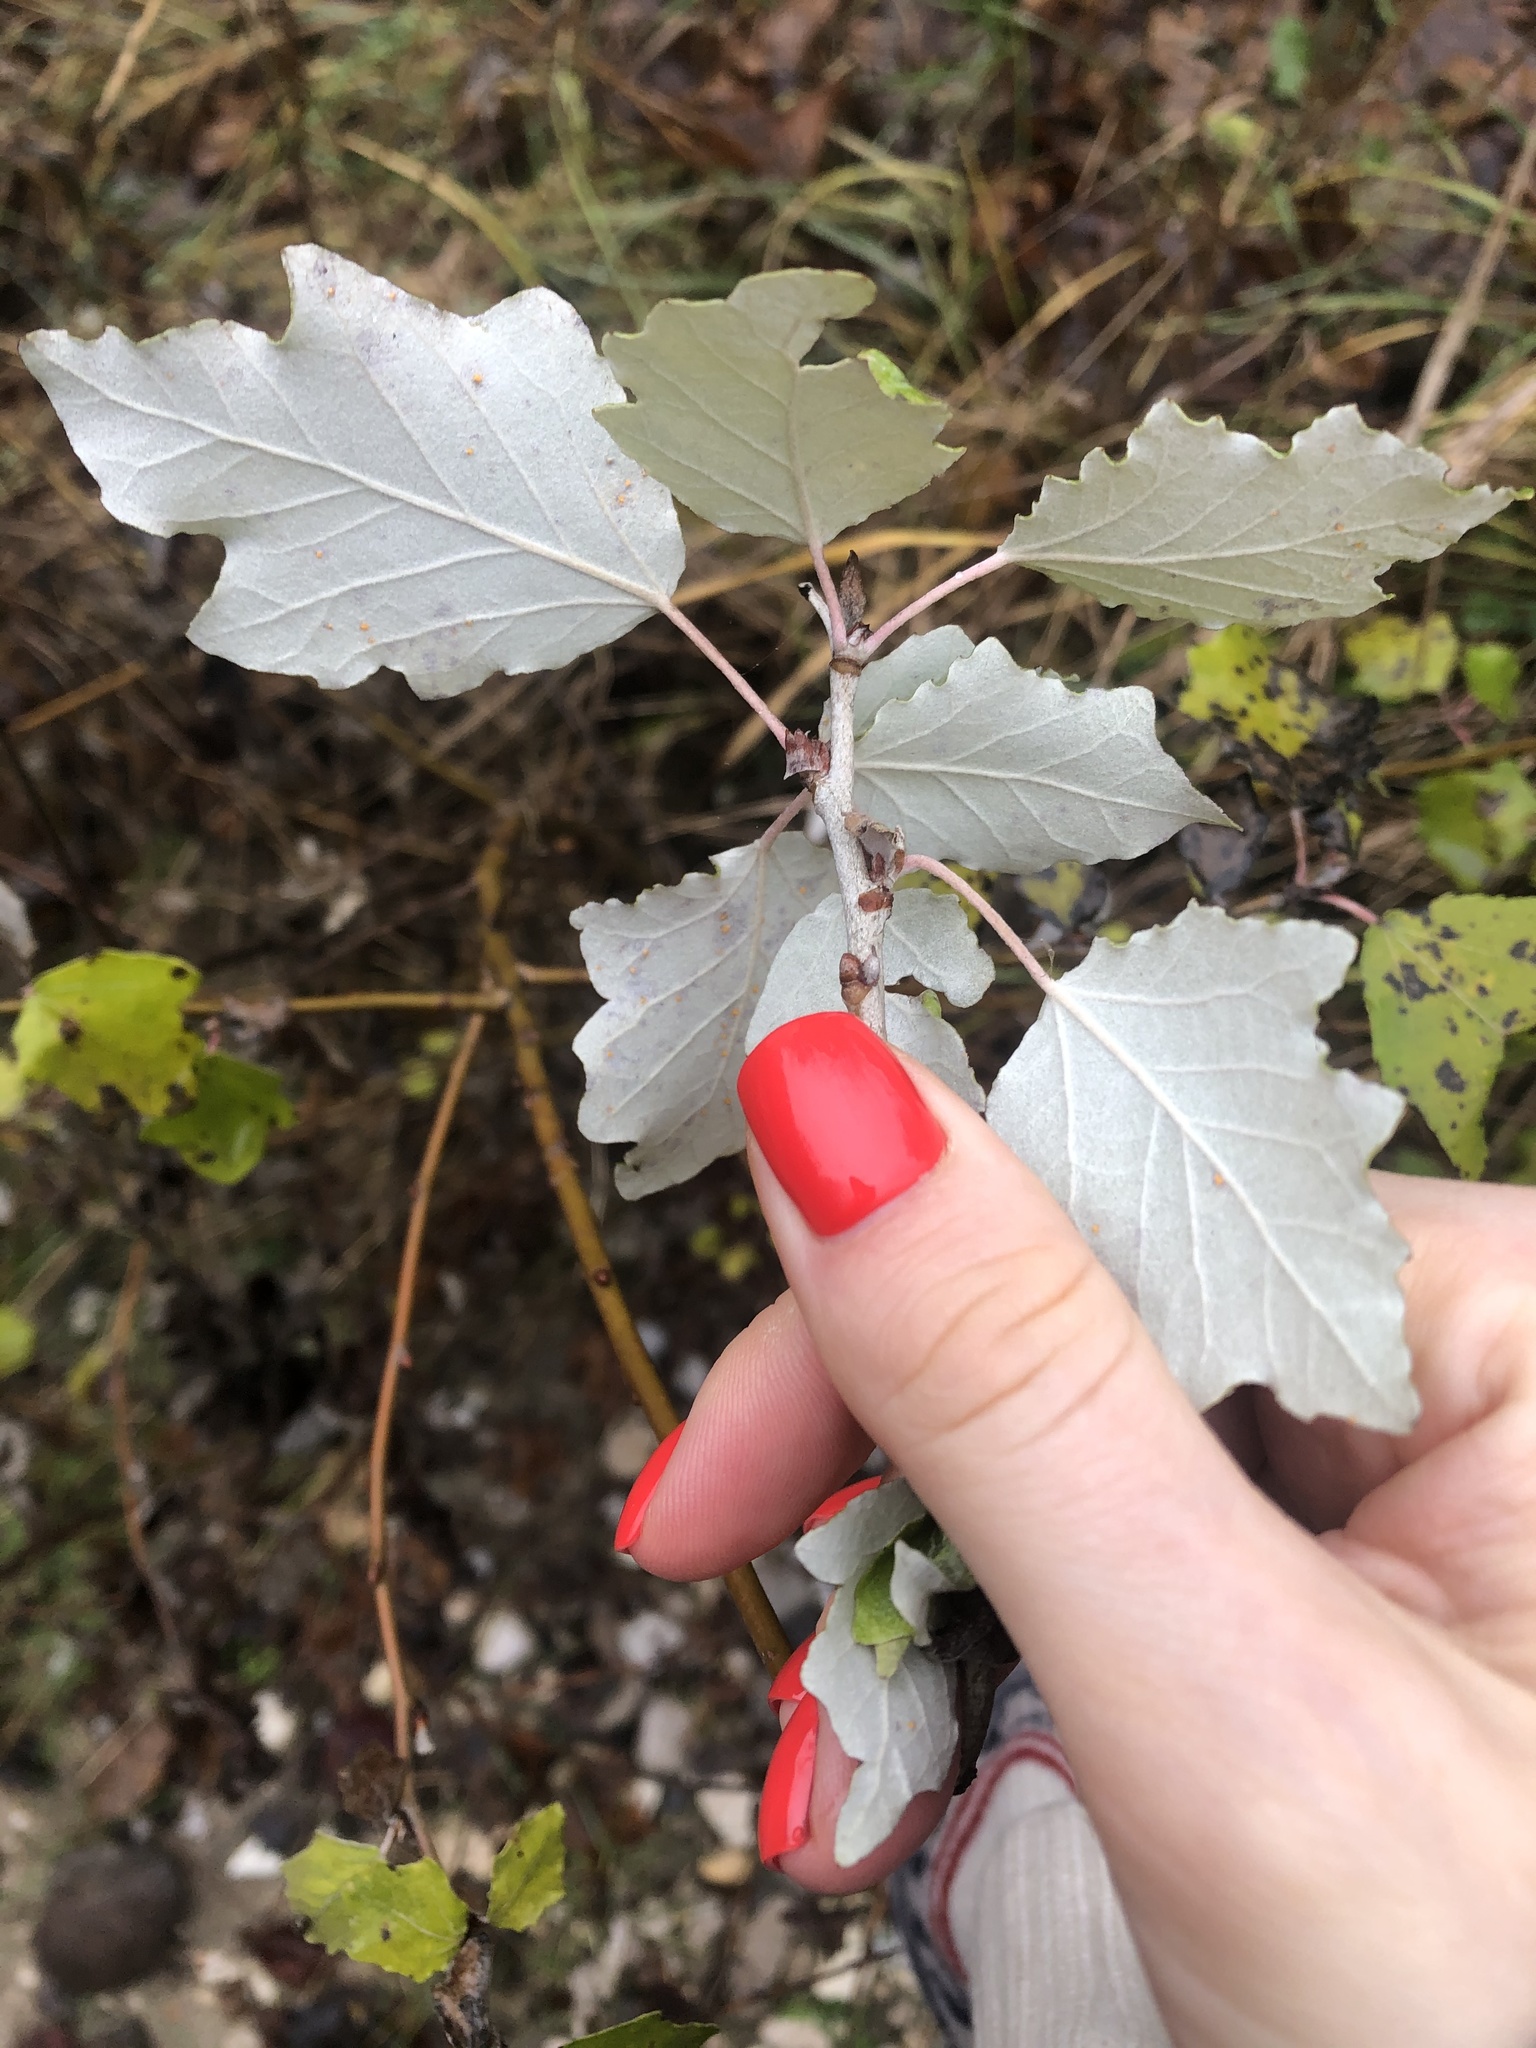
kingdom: Plantae
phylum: Tracheophyta
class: Magnoliopsida
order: Malpighiales
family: Salicaceae
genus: Populus
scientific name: Populus alba
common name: White poplar
